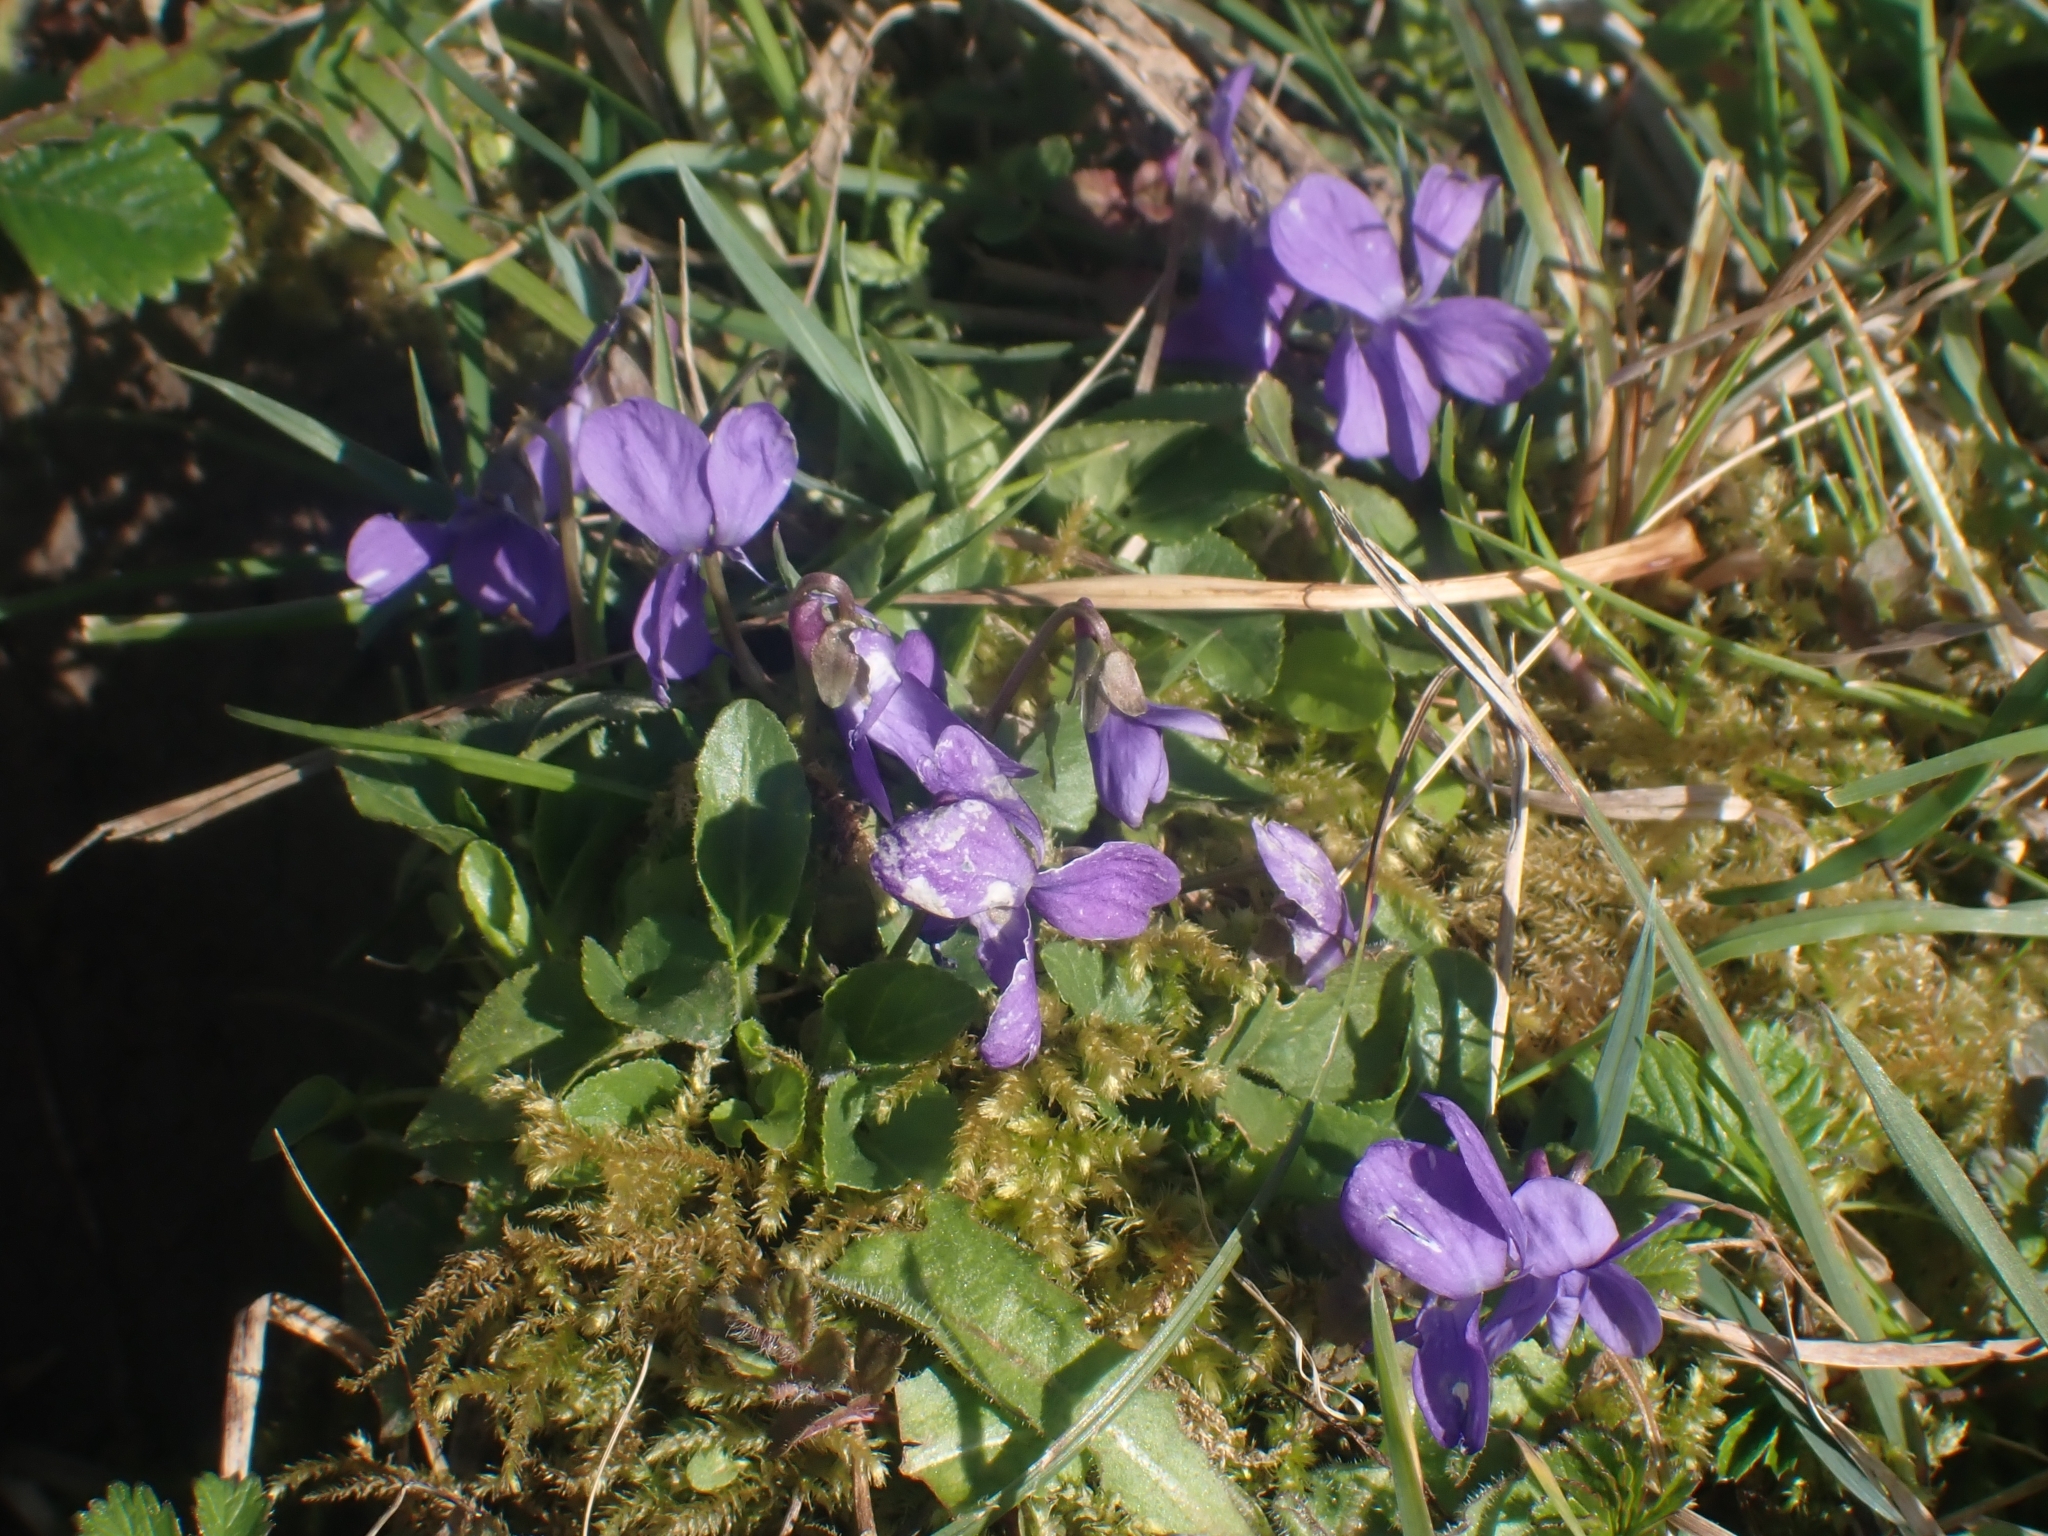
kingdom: Plantae
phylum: Tracheophyta
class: Magnoliopsida
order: Malpighiales
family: Violaceae
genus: Viola
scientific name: Viola odorata
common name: Sweet violet
